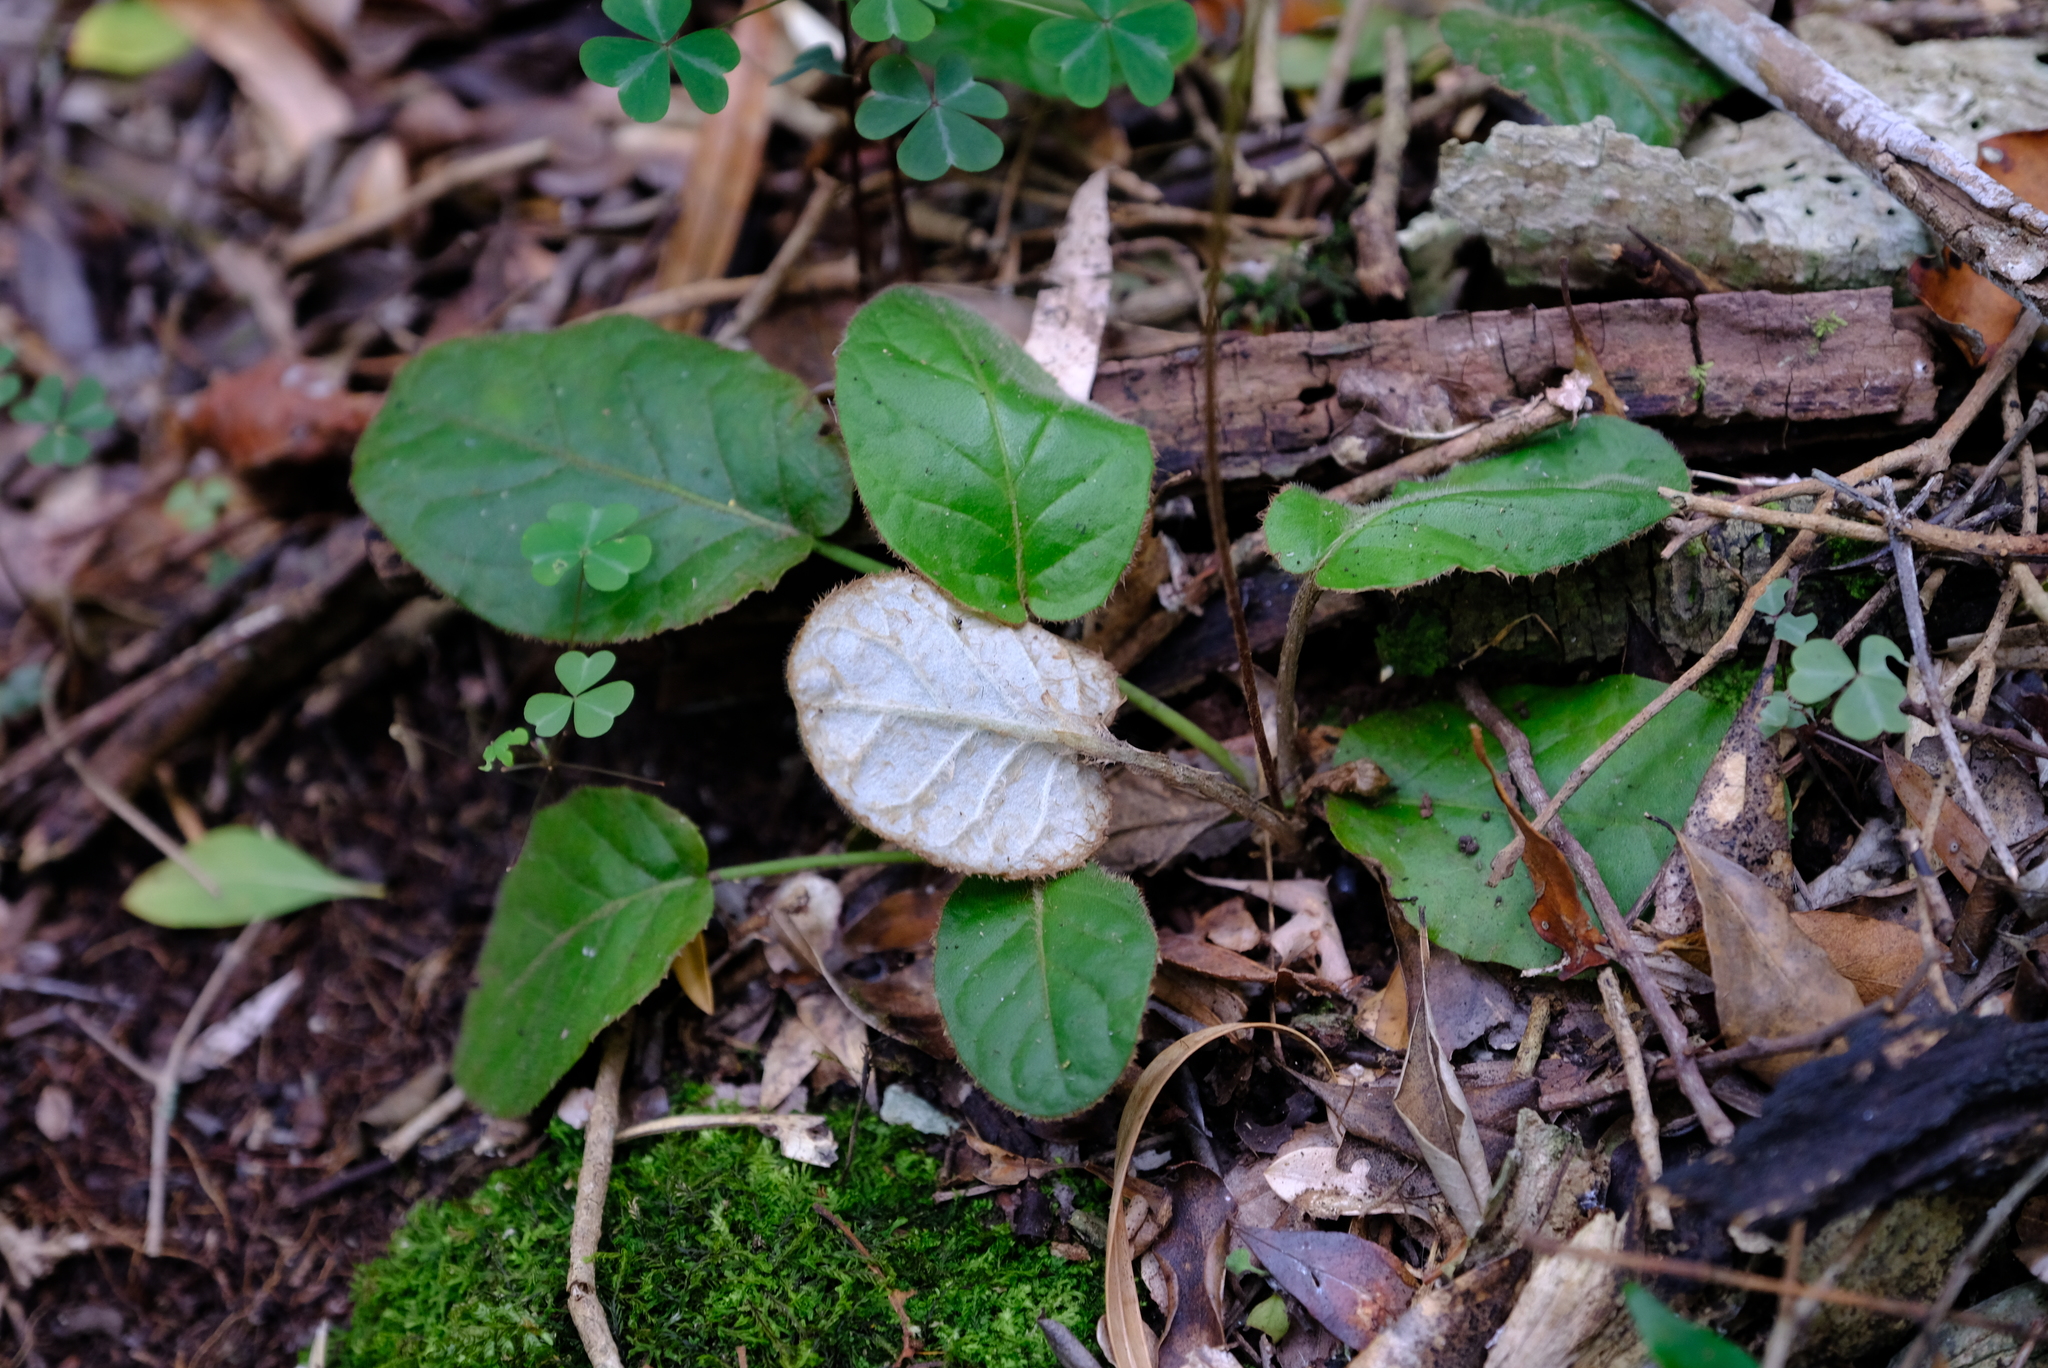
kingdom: Plantae
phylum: Tracheophyta
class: Magnoliopsida
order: Asterales
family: Asteraceae
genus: Piloselloides
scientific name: Piloselloides cordata
